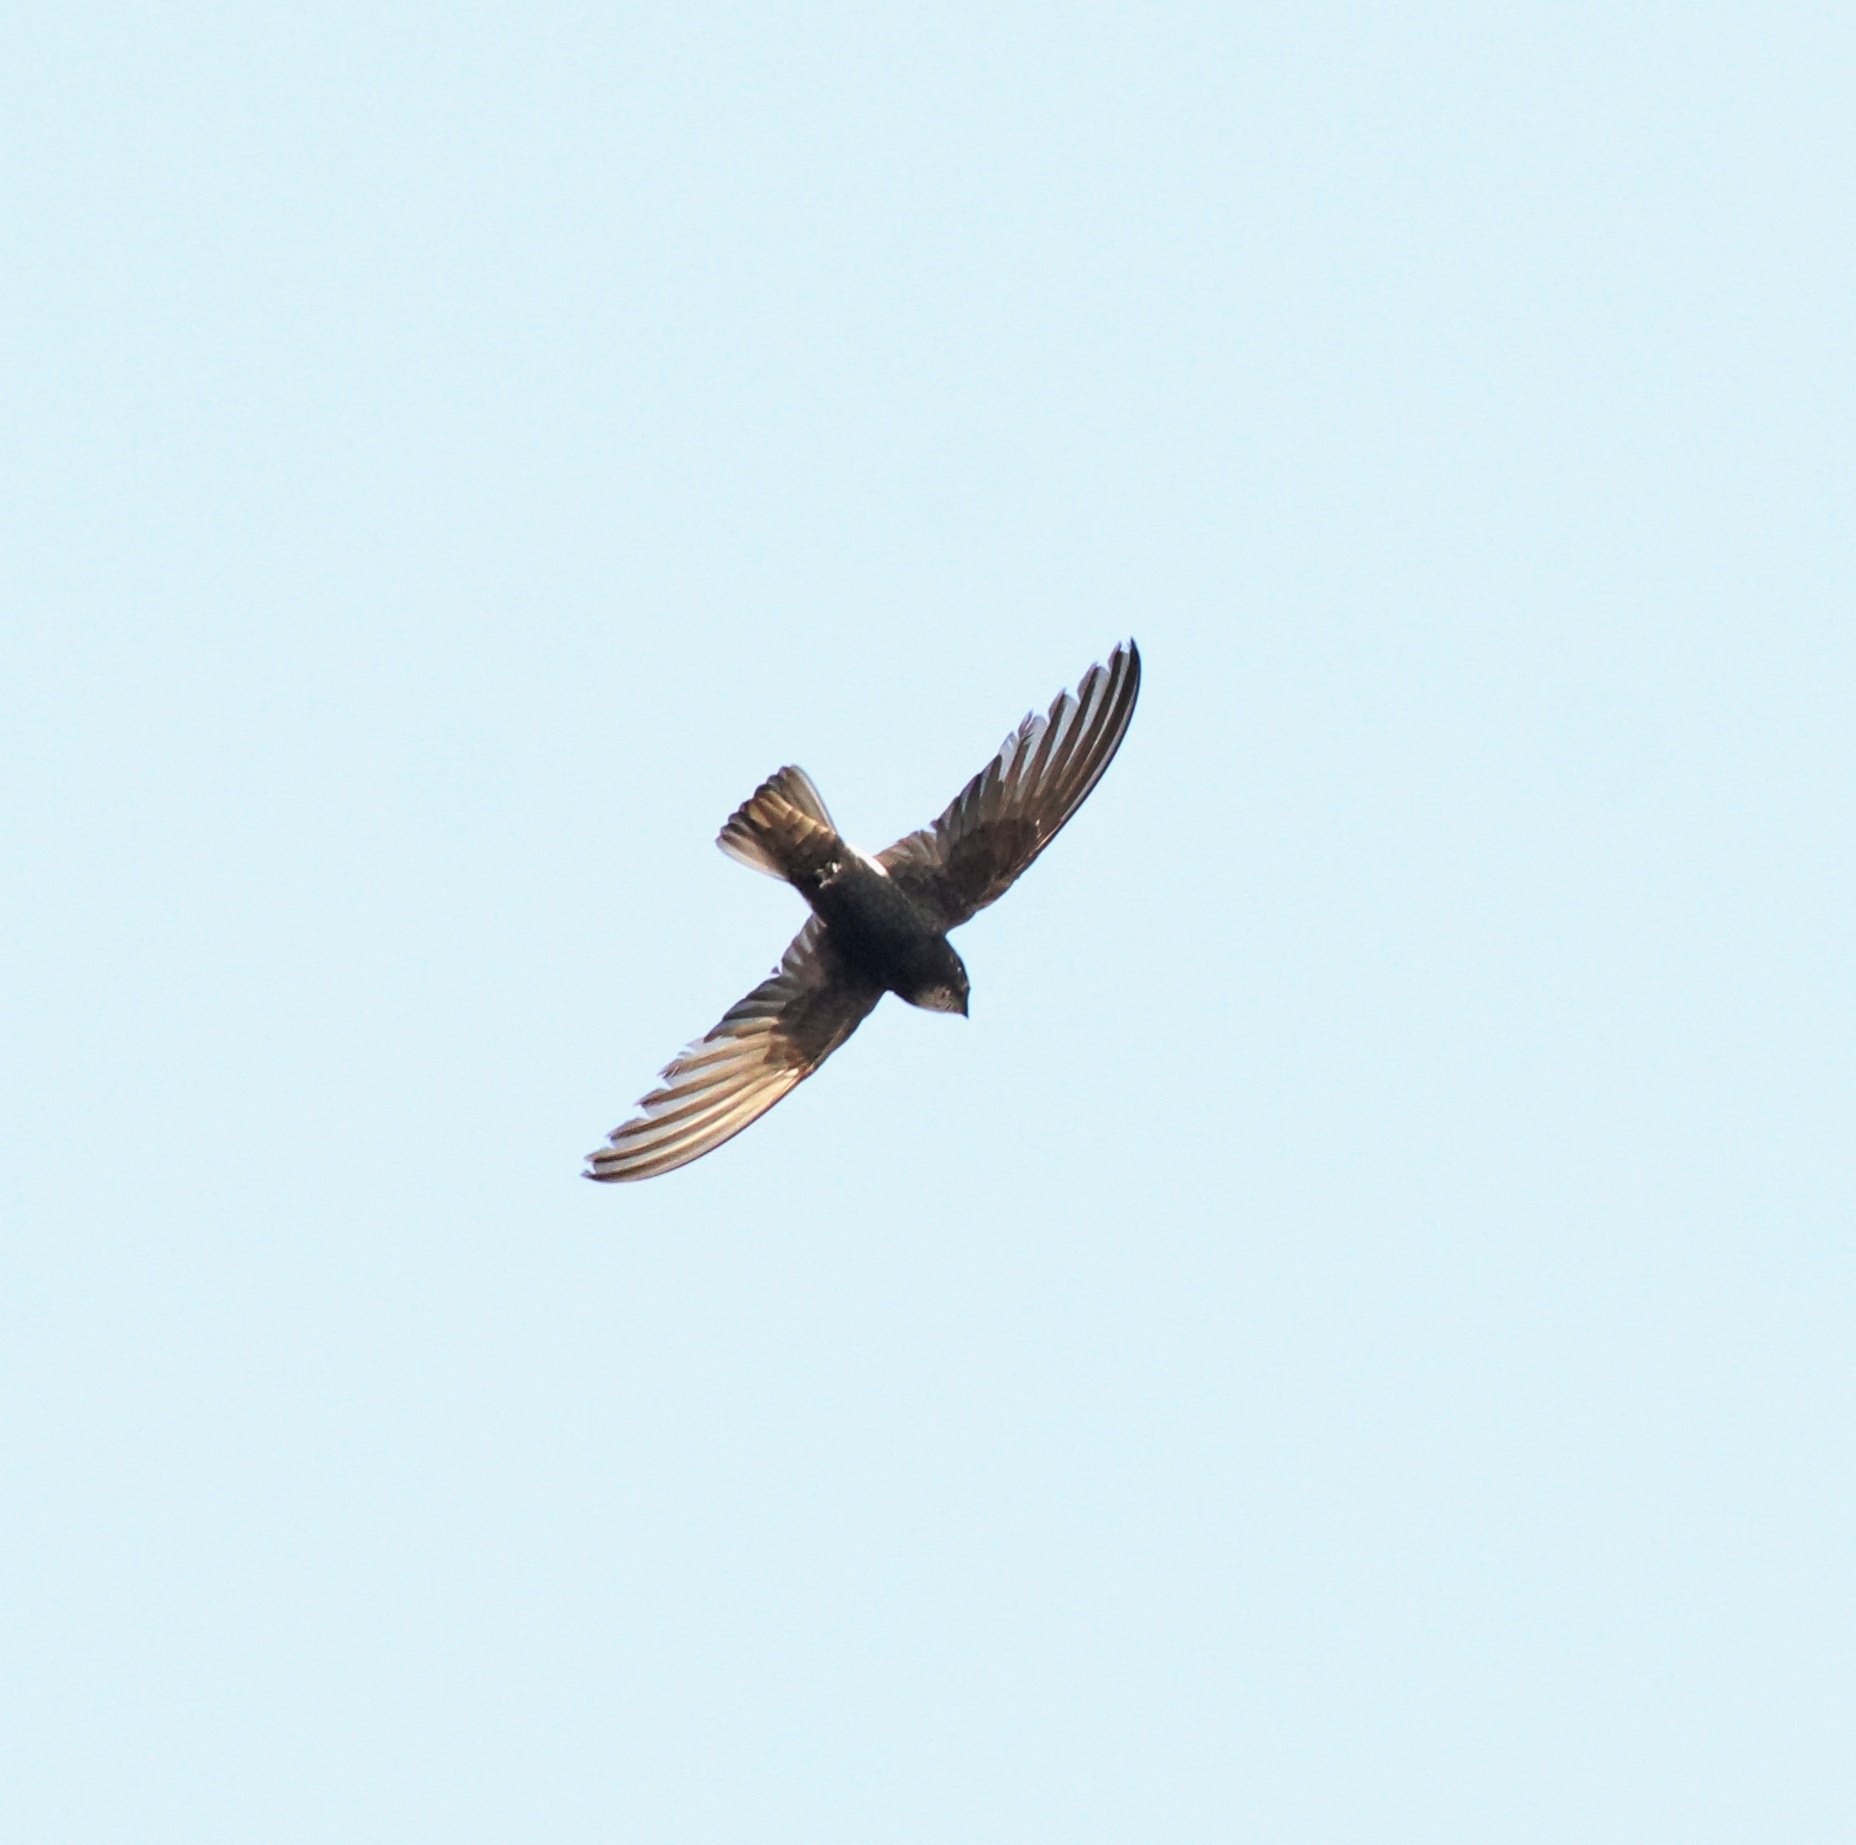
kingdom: Animalia
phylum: Chordata
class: Aves
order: Apodiformes
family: Apodidae
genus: Apus
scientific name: Apus affinis
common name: Little swift
